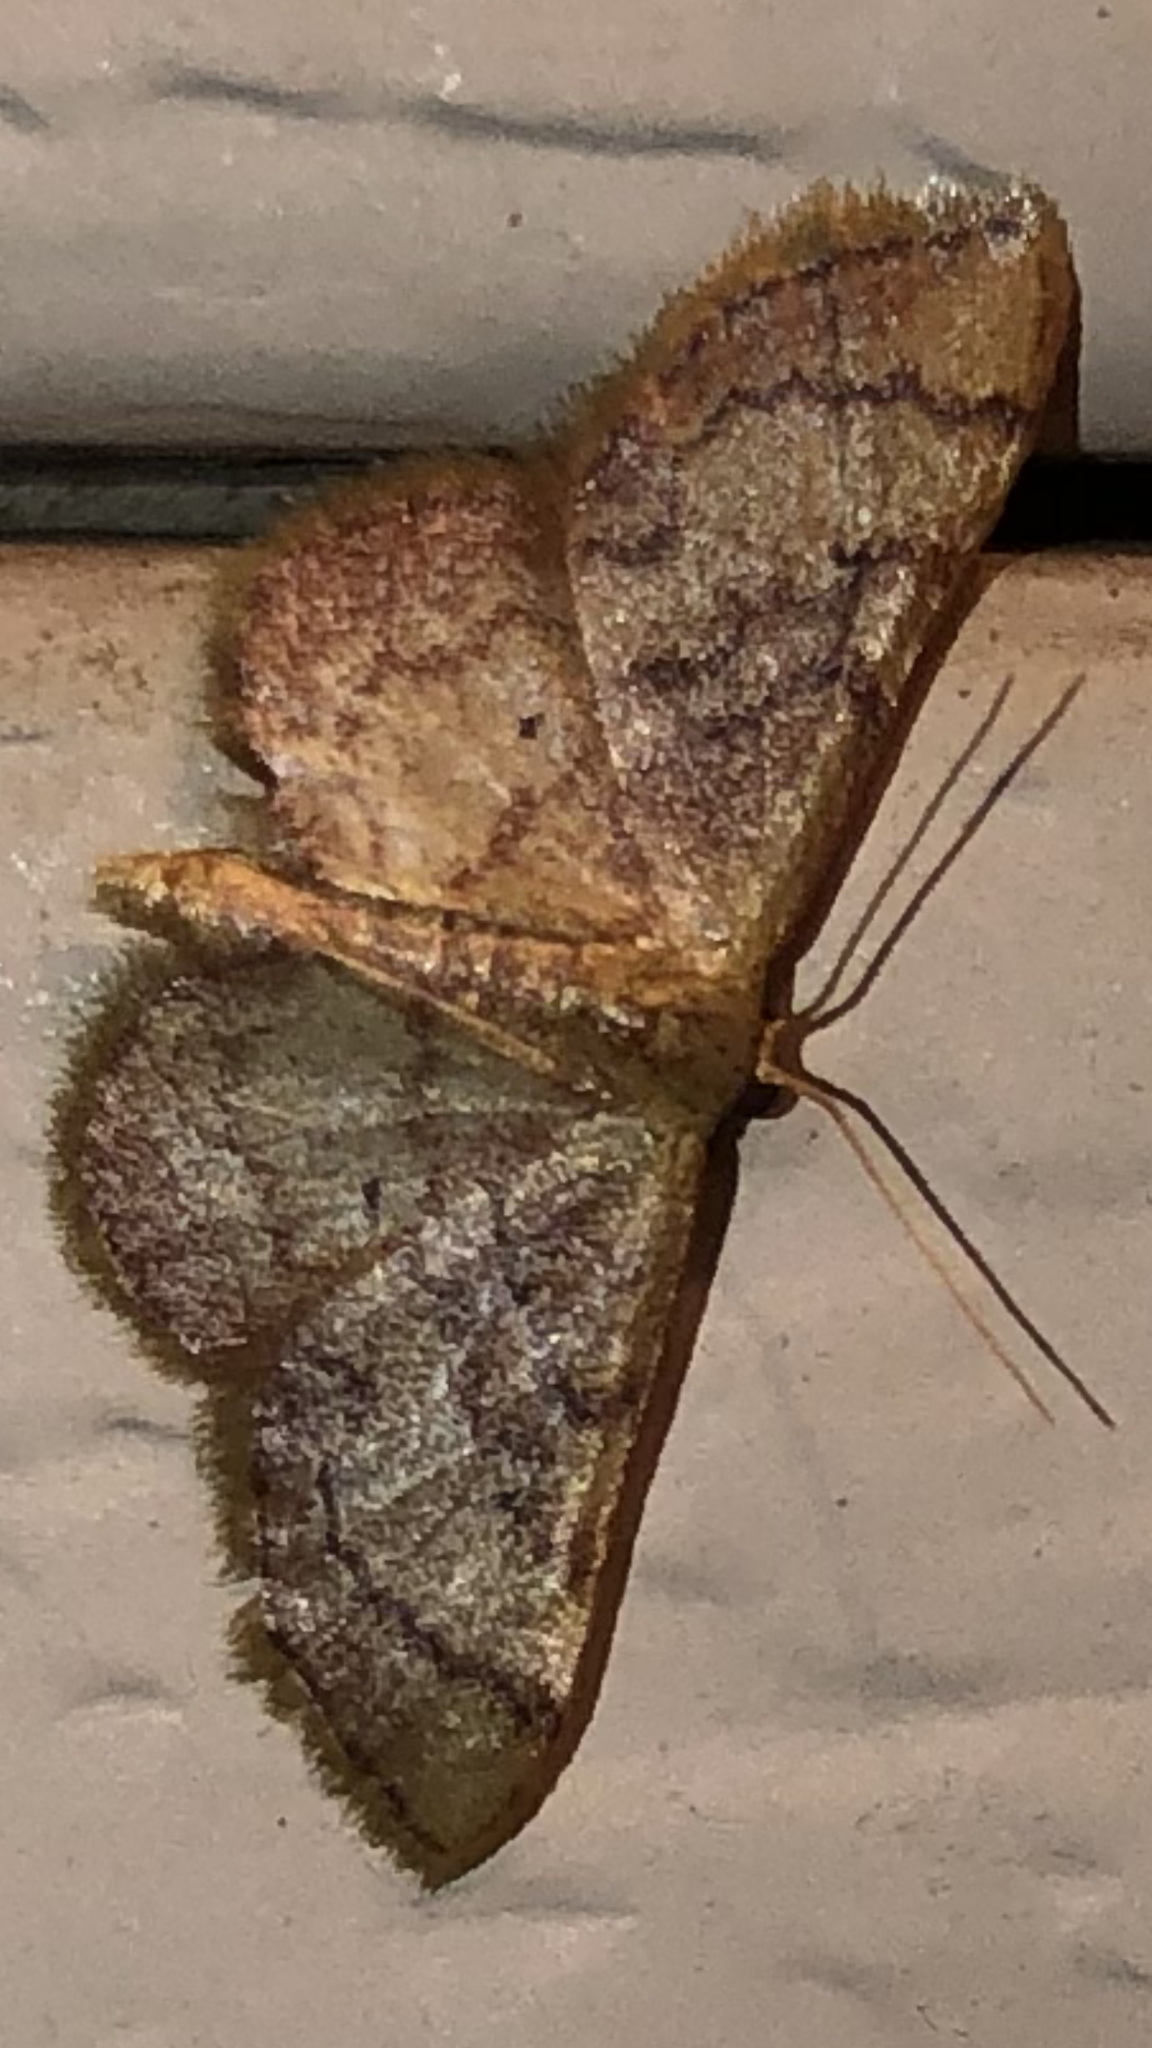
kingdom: Animalia
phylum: Arthropoda
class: Insecta
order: Lepidoptera
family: Geometridae
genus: Idaea
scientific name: Idaea demissaria
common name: Red-bordered wave
